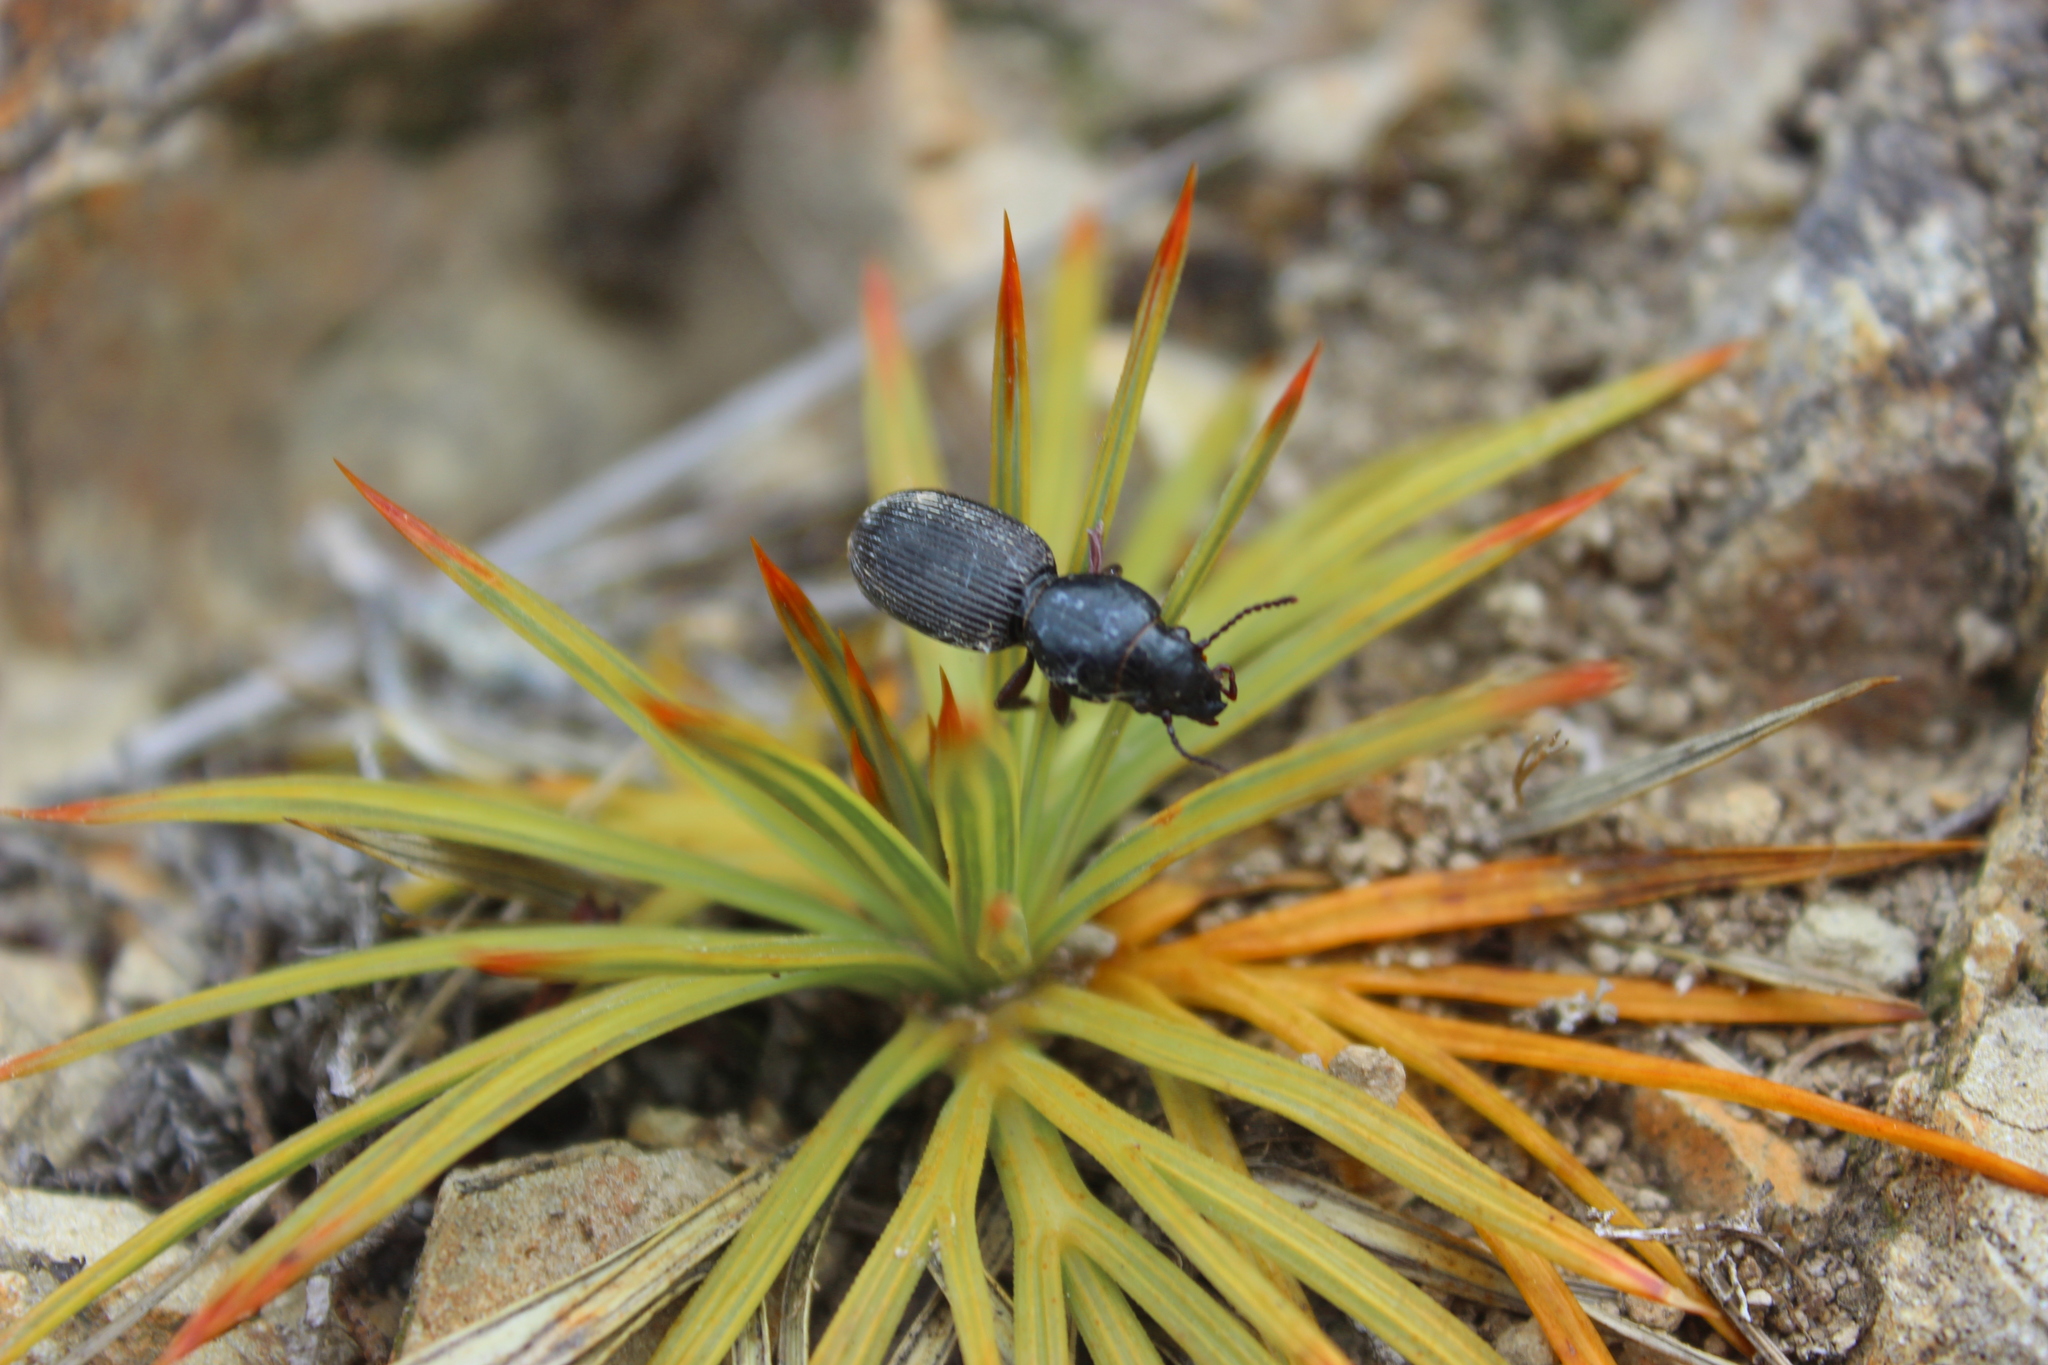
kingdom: Animalia
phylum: Arthropoda
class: Insecta
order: Coleoptera
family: Carabidae
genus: Mecodema
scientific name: Mecodema oblongum
